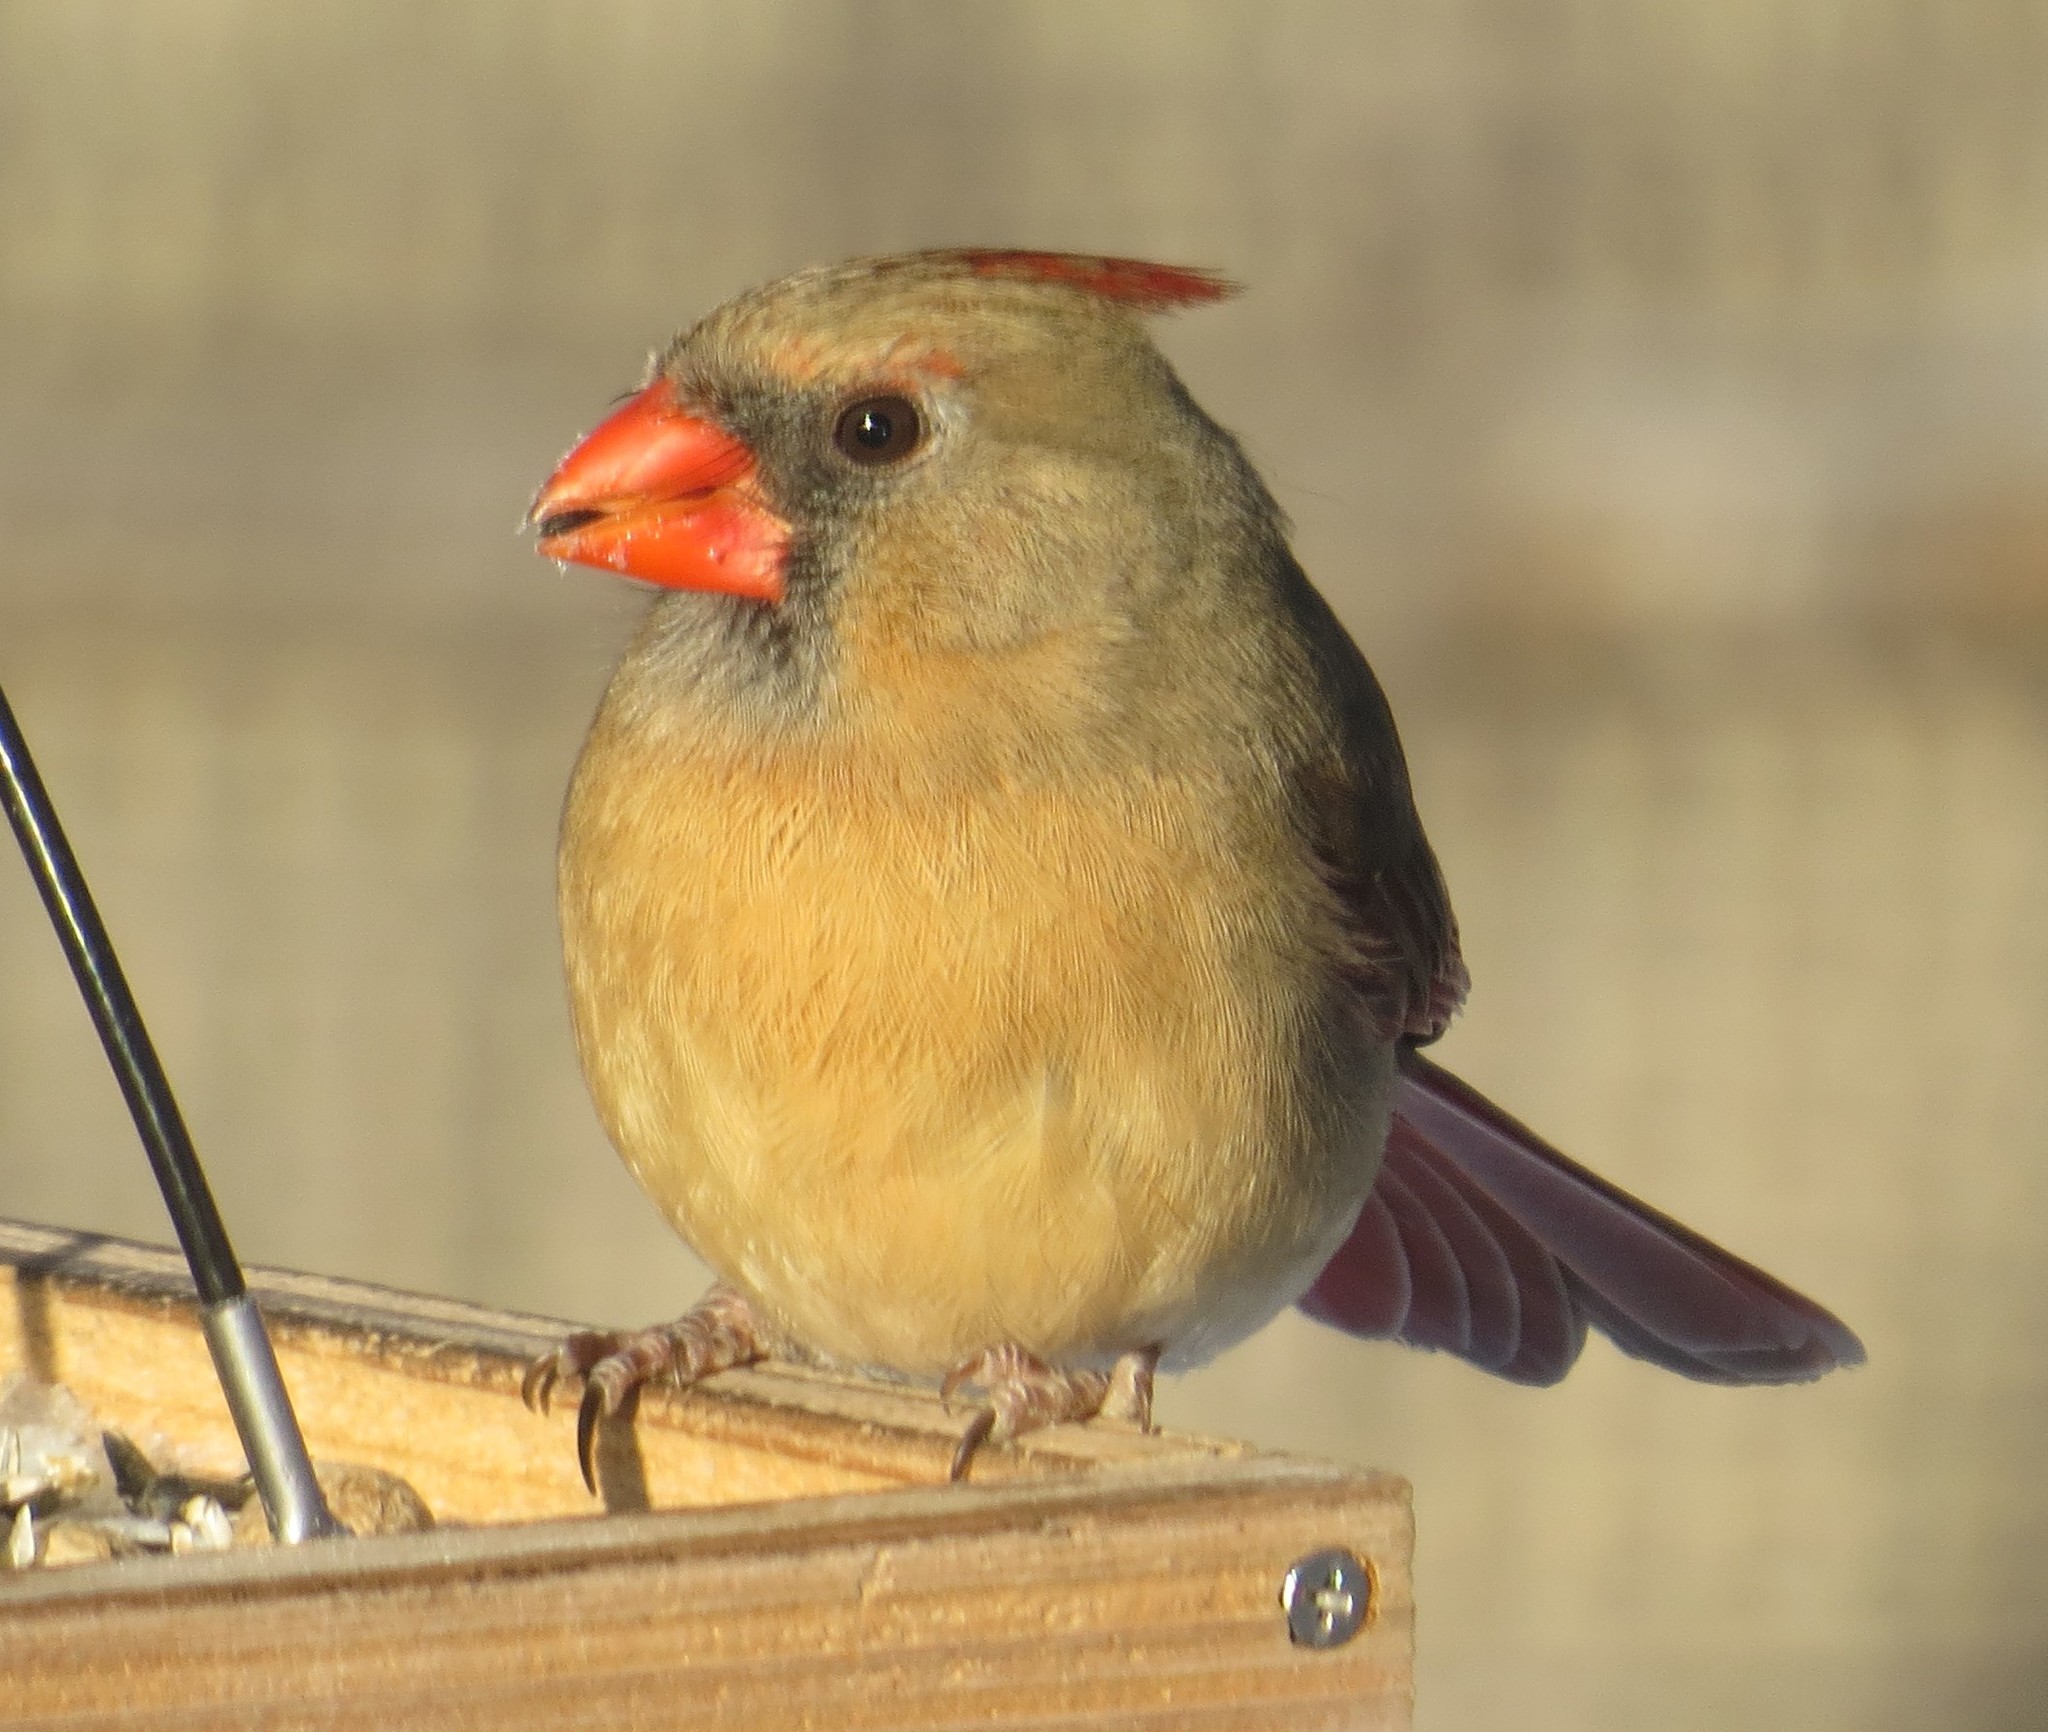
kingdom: Animalia
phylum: Chordata
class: Aves
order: Passeriformes
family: Cardinalidae
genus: Cardinalis
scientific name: Cardinalis cardinalis
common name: Northern cardinal
